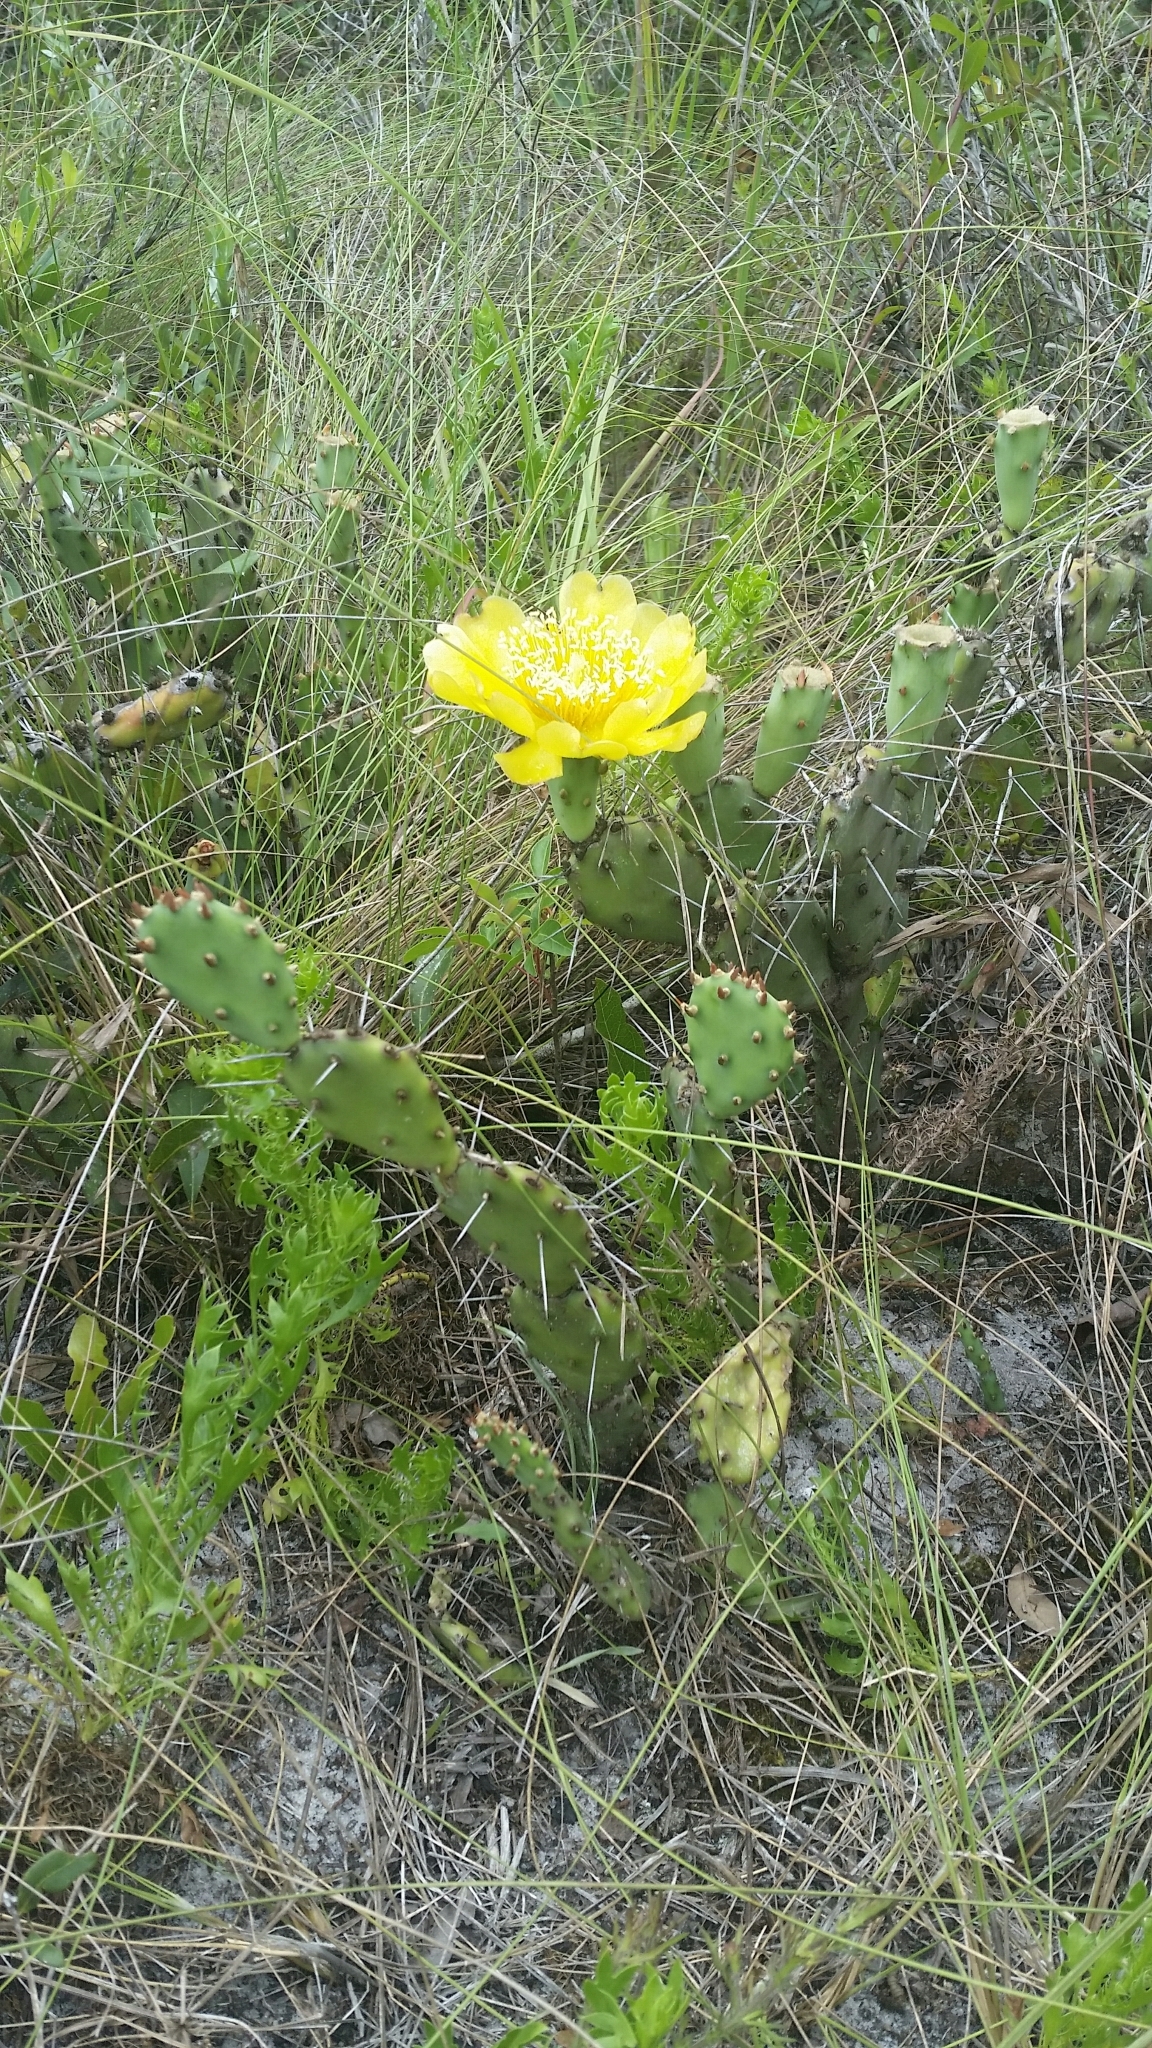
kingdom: Plantae
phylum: Tracheophyta
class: Magnoliopsida
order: Caryophyllales
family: Cactaceae
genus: Opuntia
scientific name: Opuntia austrina
